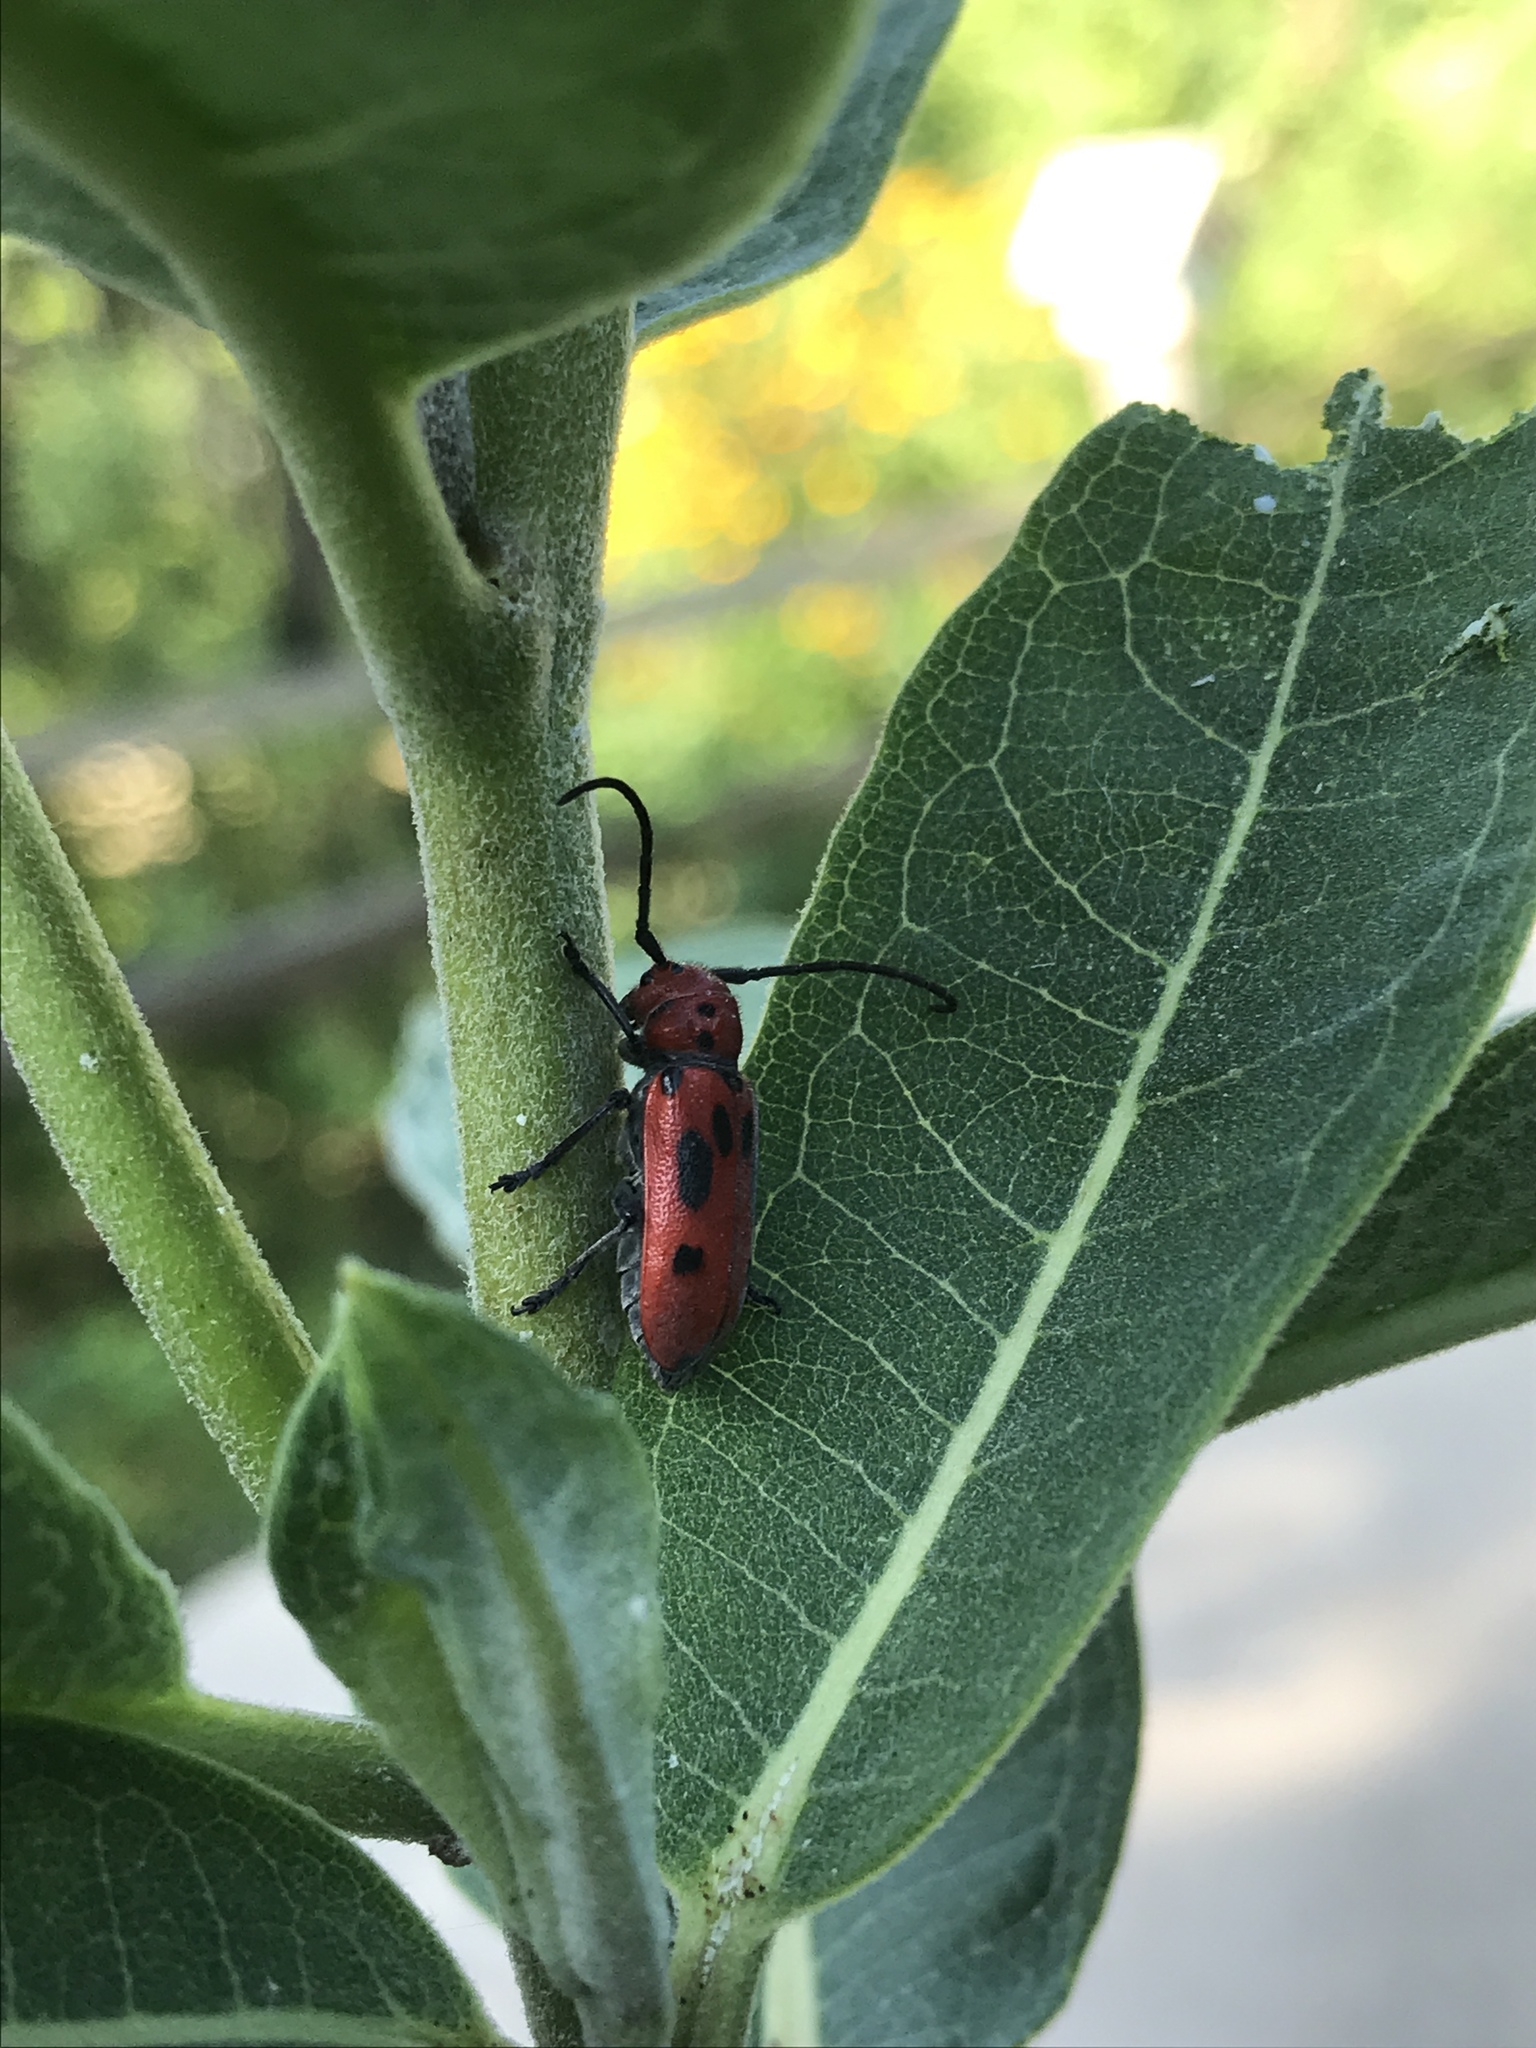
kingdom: Animalia
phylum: Arthropoda
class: Insecta
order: Coleoptera
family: Cerambycidae
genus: Tetraopes
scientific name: Tetraopes tetrophthalmus
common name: Red milkweed beetle
